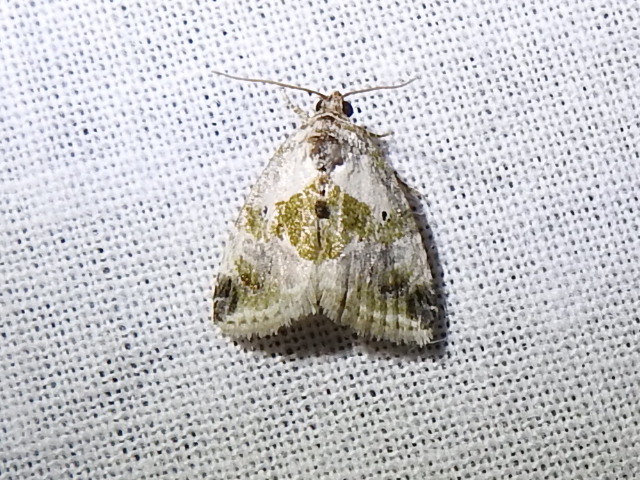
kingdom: Animalia
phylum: Arthropoda
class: Insecta
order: Lepidoptera
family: Noctuidae
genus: Maliattha
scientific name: Maliattha synochitis
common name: Black-dotted glyph
